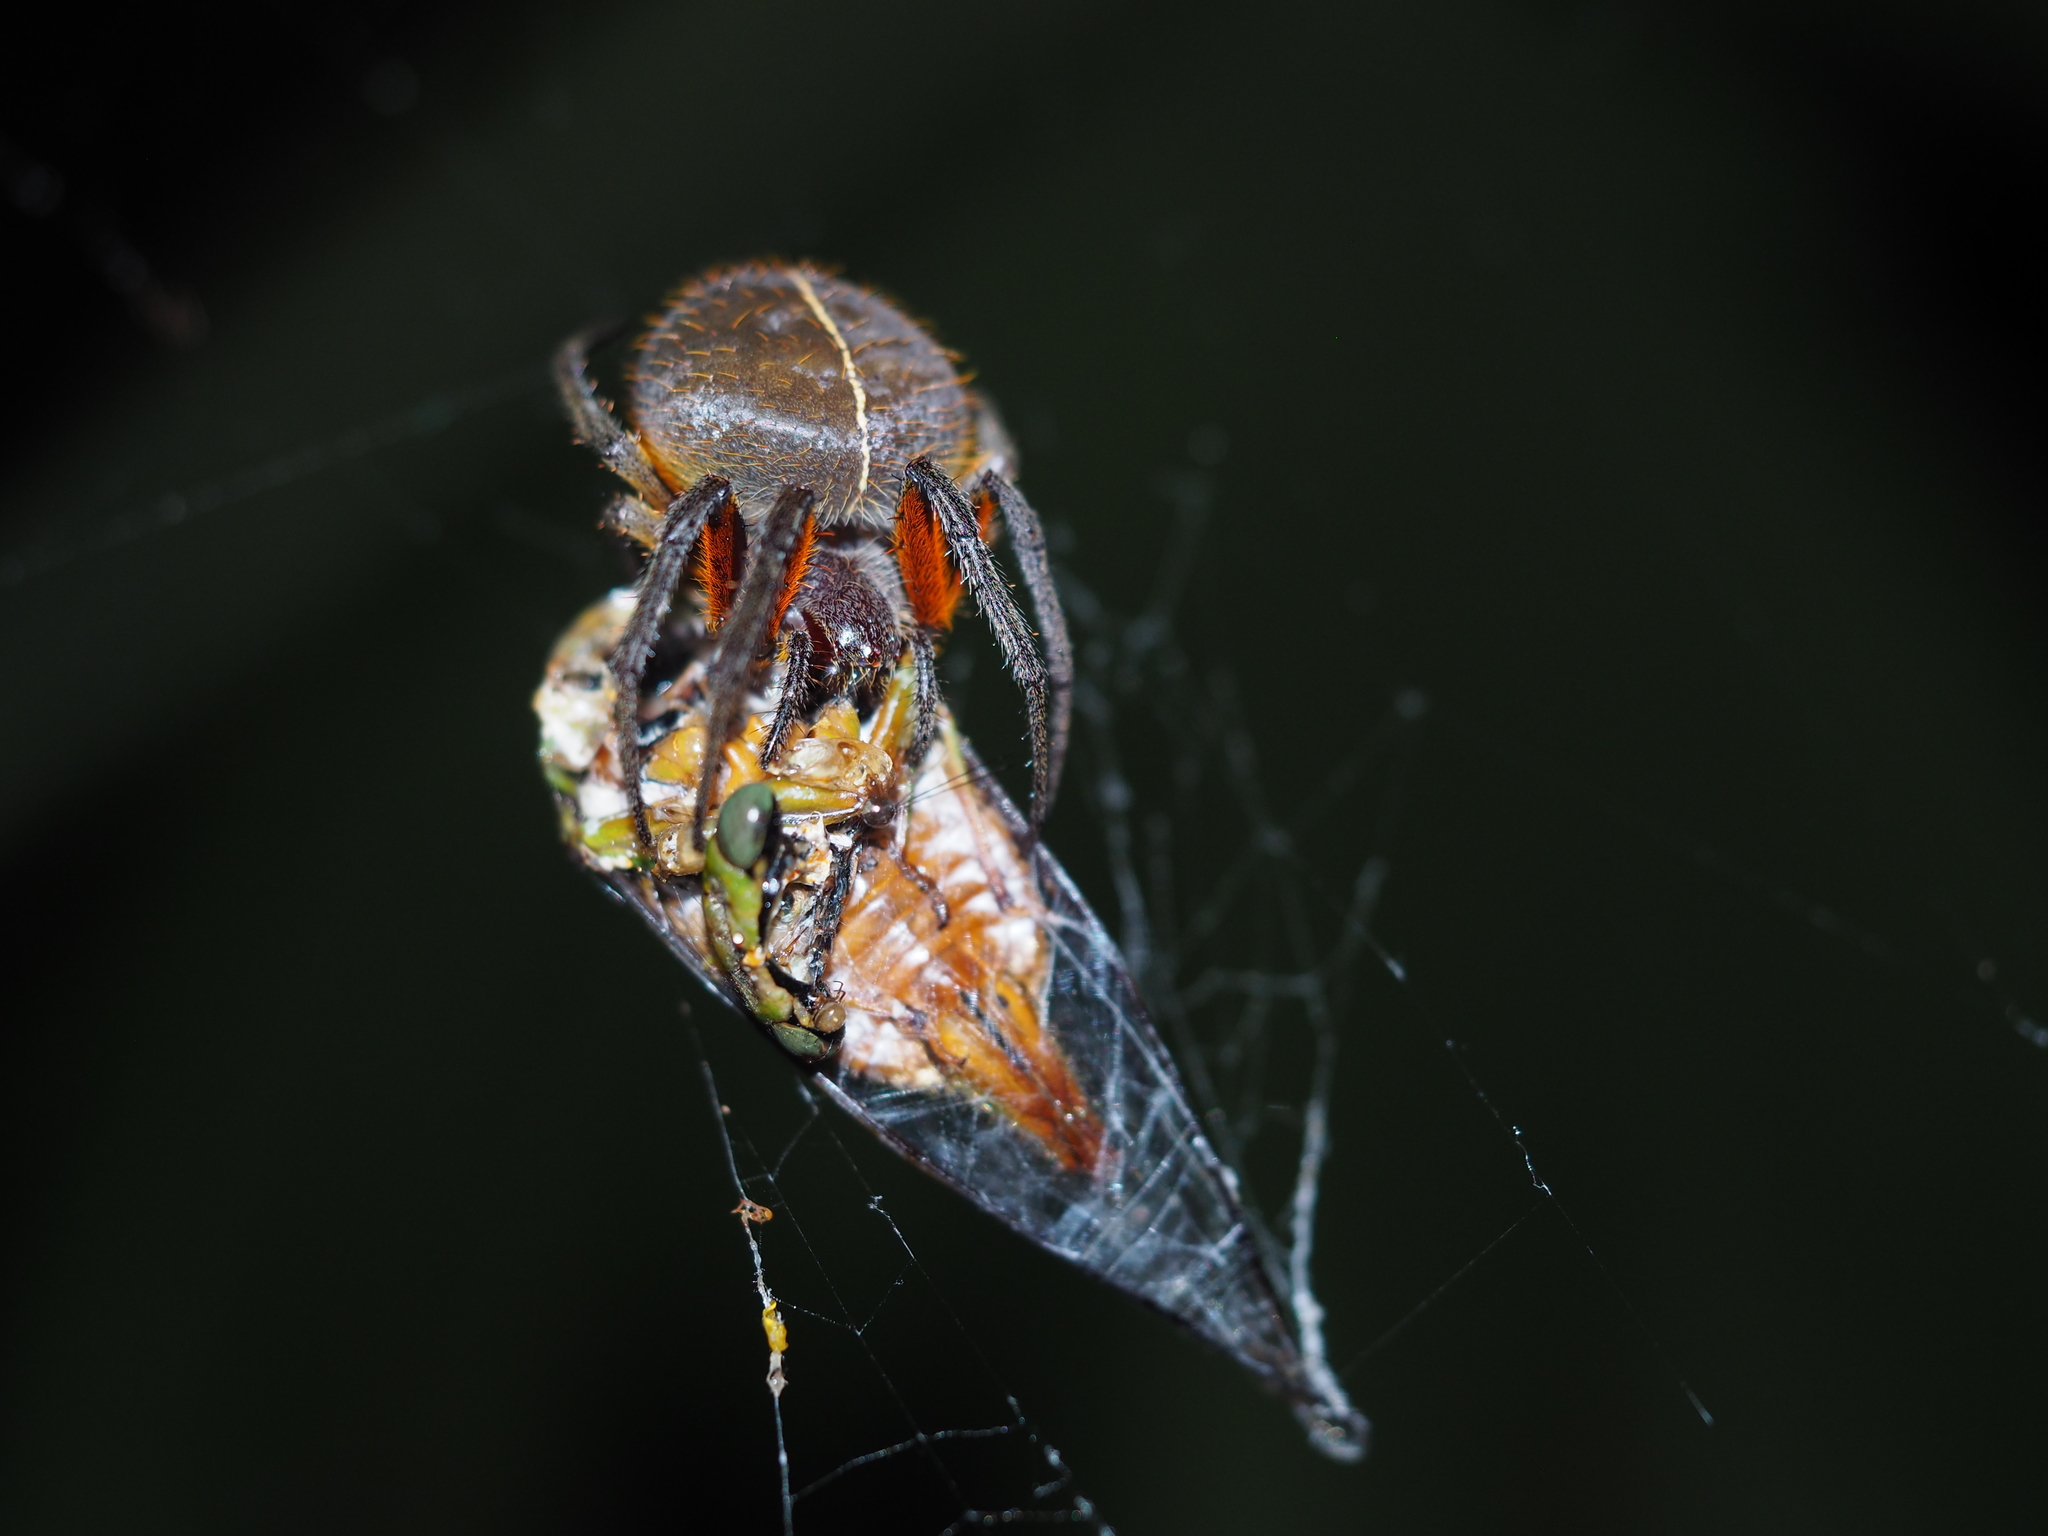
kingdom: Animalia
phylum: Arthropoda
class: Arachnida
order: Araneae
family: Araneidae
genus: Eriophora
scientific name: Eriophora fuliginea
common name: Orb weavers
